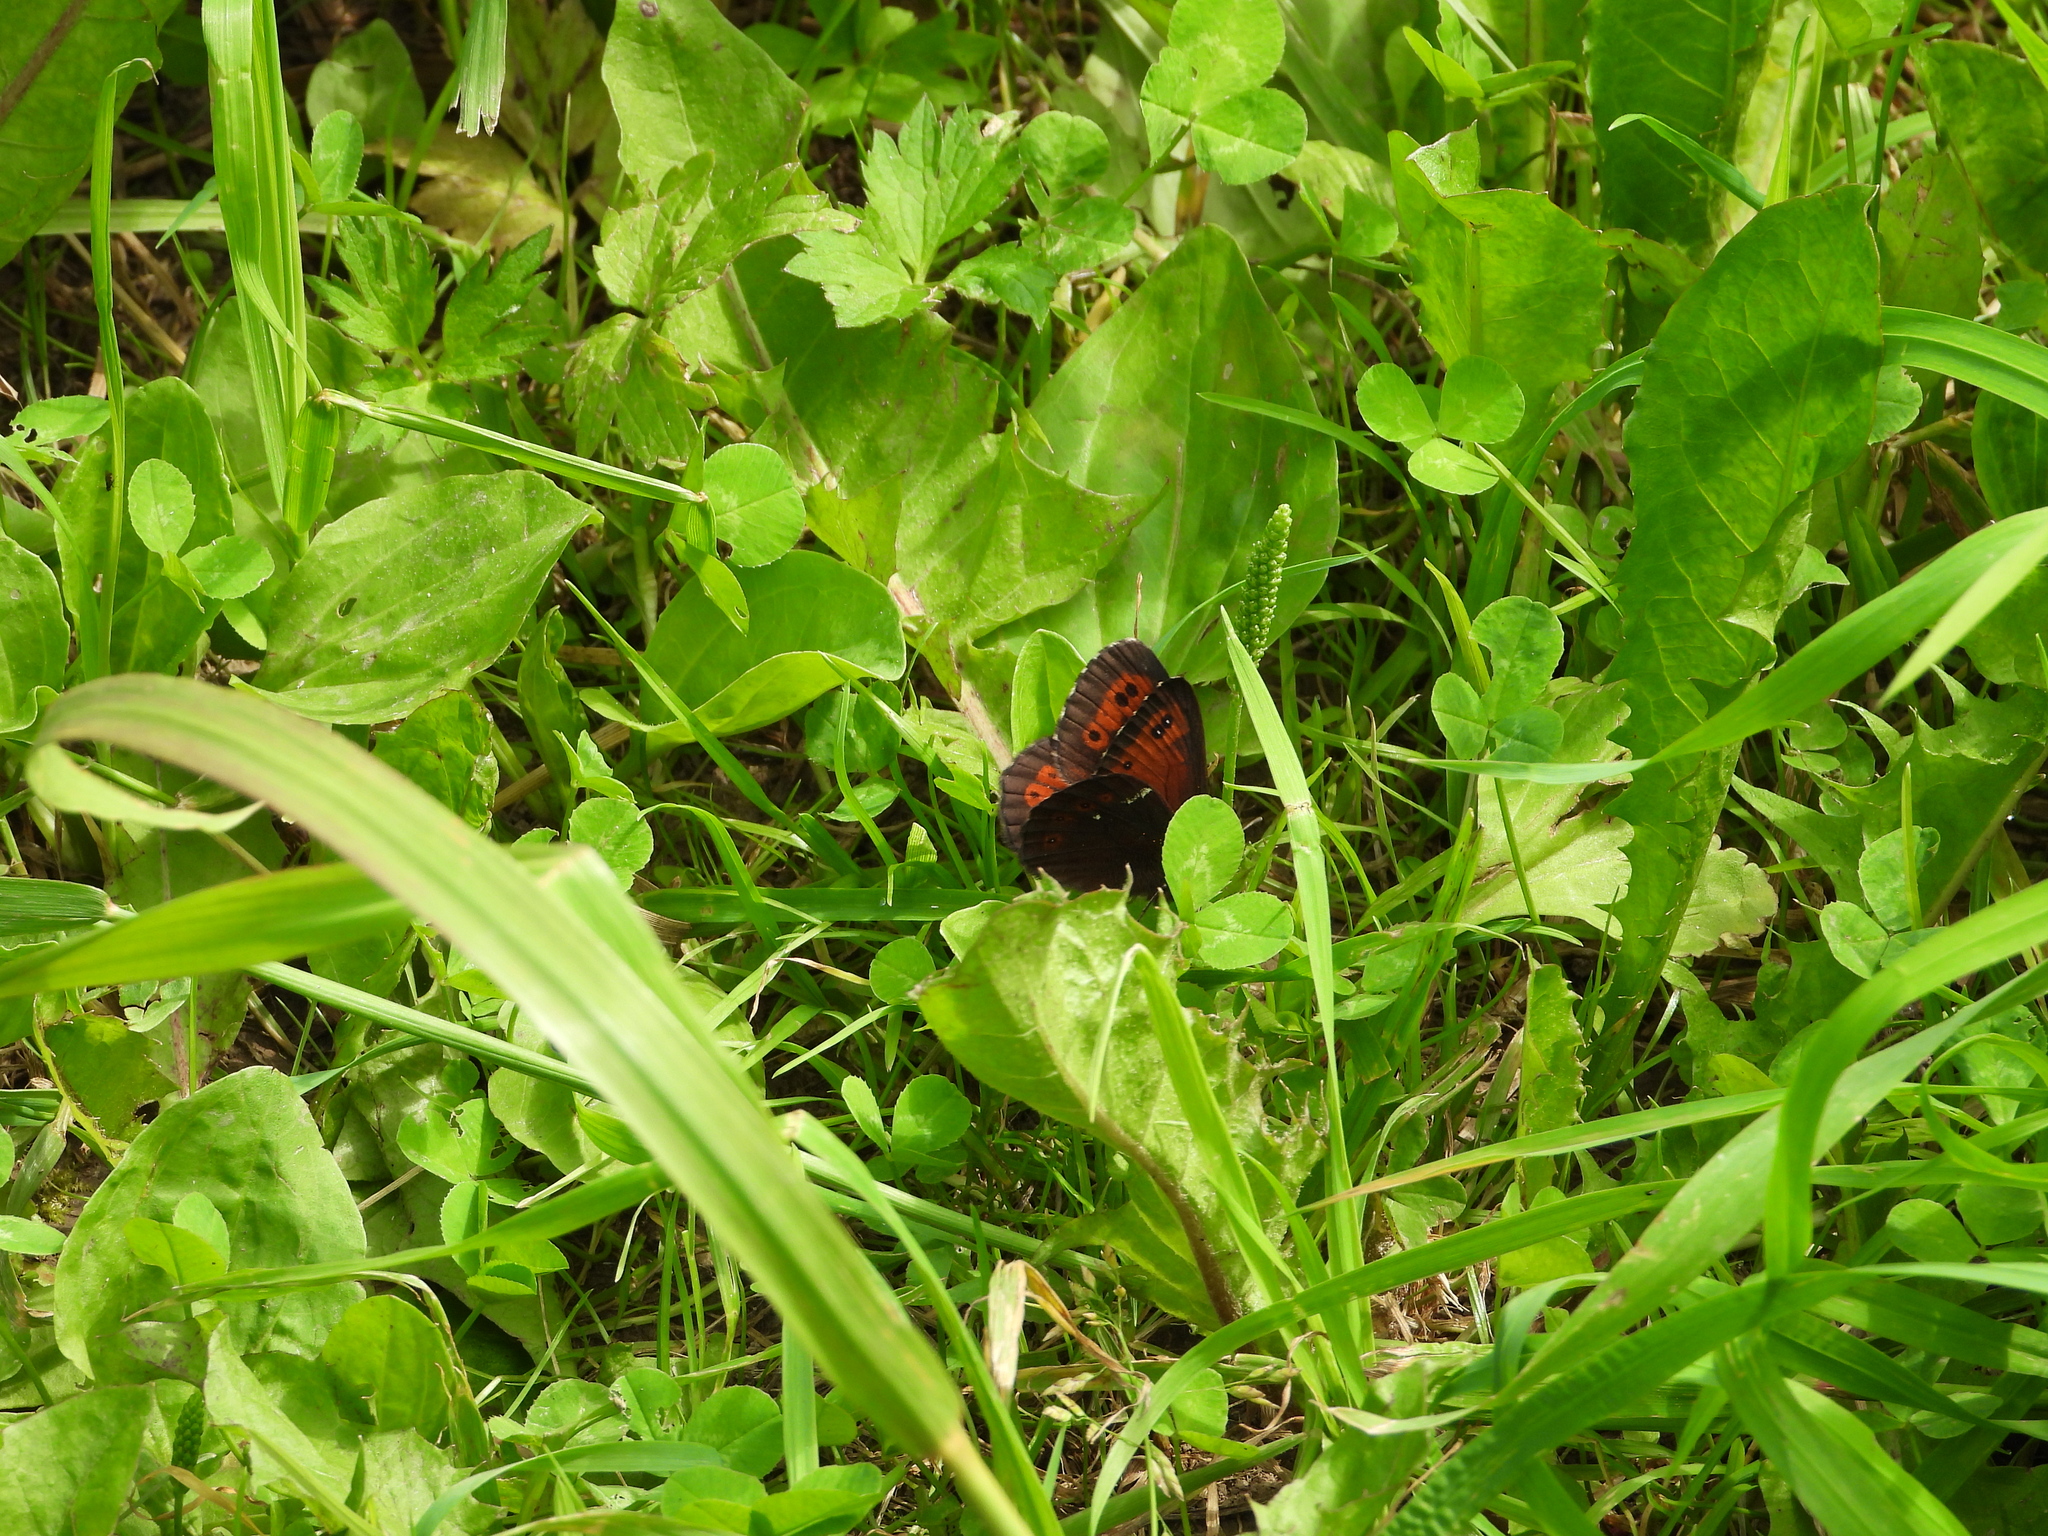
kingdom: Animalia
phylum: Arthropoda
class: Insecta
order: Lepidoptera
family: Nymphalidae
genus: Erebia
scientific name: Erebia ligea
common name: Arran brown
